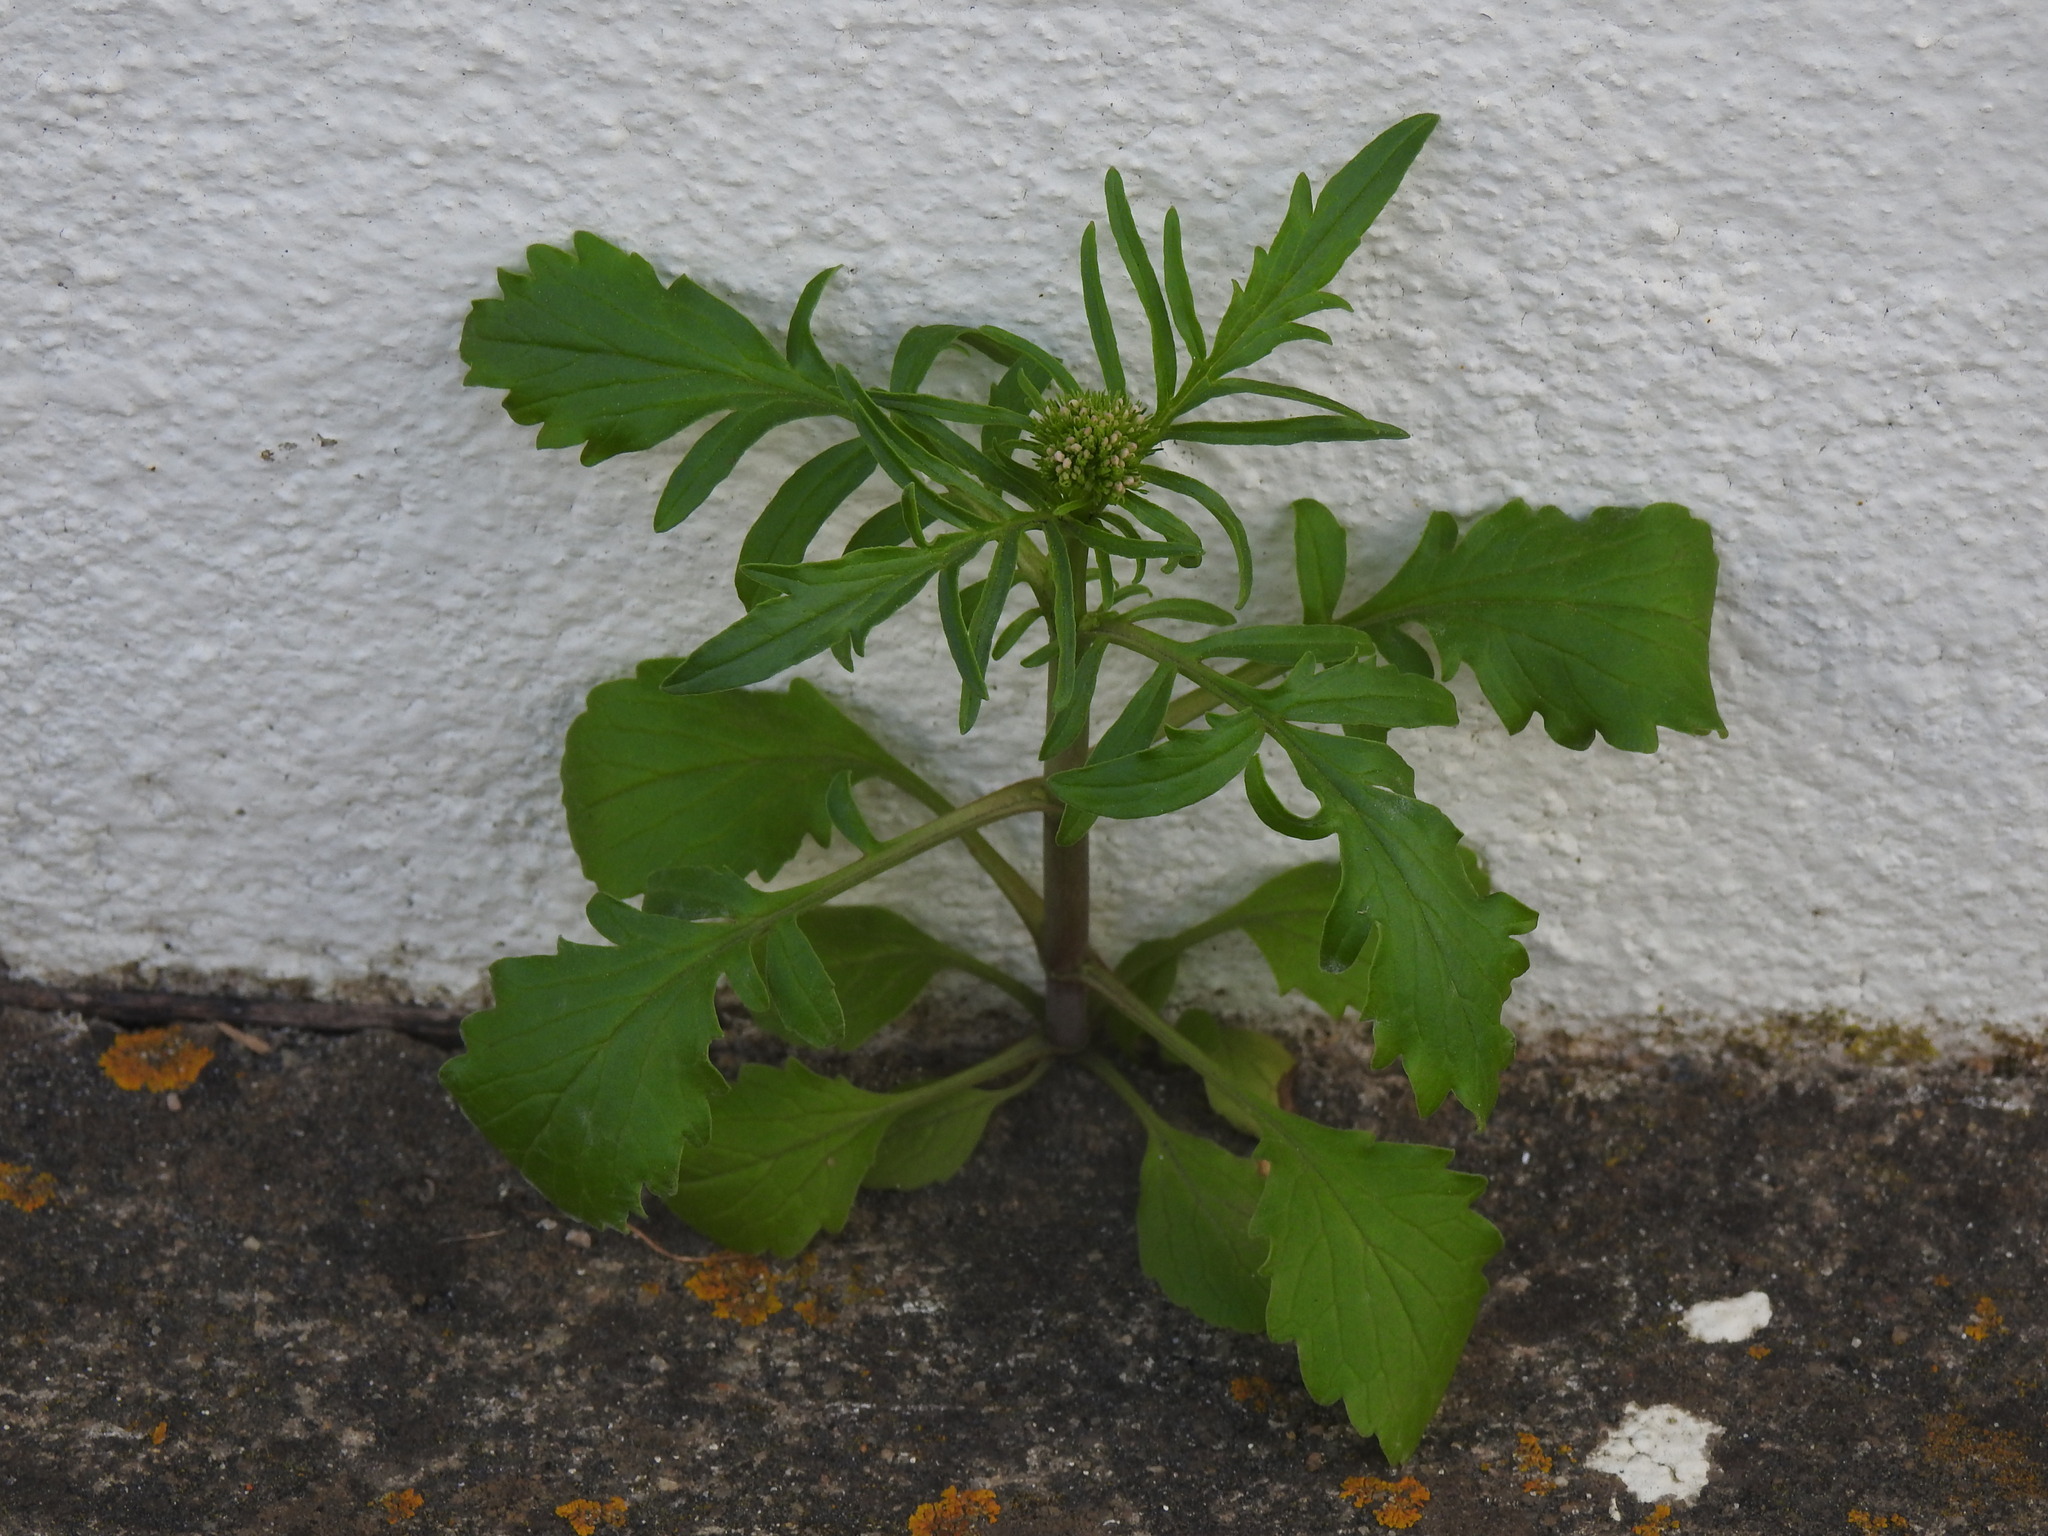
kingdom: Plantae
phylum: Tracheophyta
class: Magnoliopsida
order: Dipsacales
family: Caprifoliaceae
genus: Centranthus
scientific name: Centranthus calcitrapae
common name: Annual valerian
